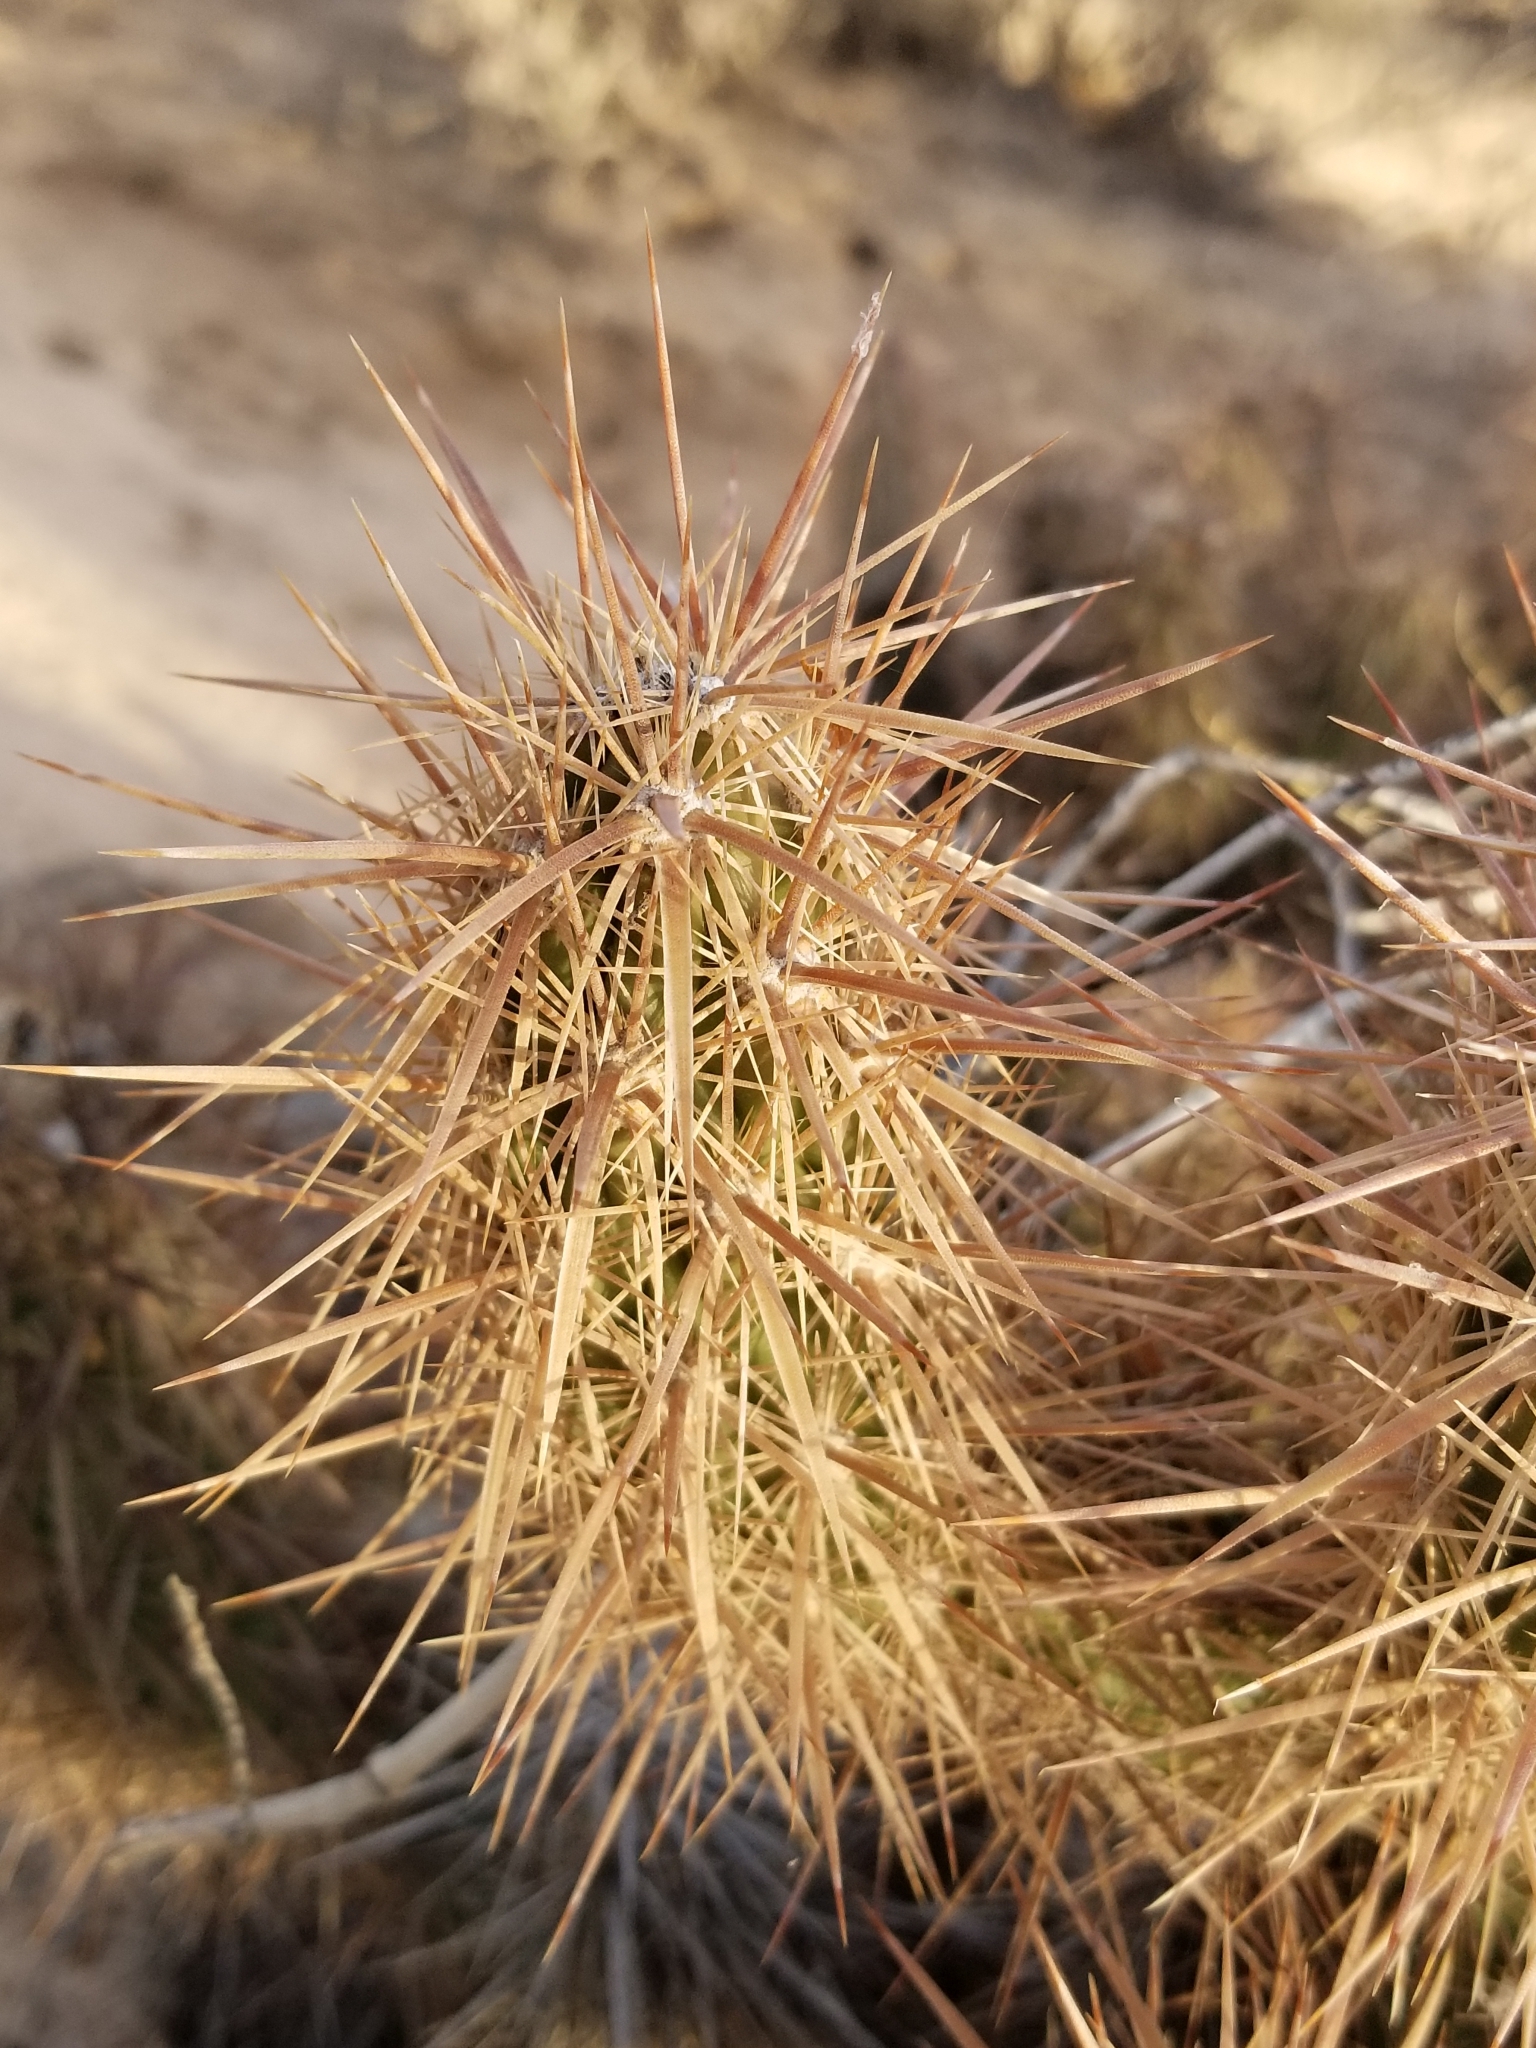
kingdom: Plantae
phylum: Tracheophyta
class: Magnoliopsida
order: Caryophyllales
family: Cactaceae
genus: Grusonia
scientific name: Grusonia kunzei
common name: Wright's club cholla
